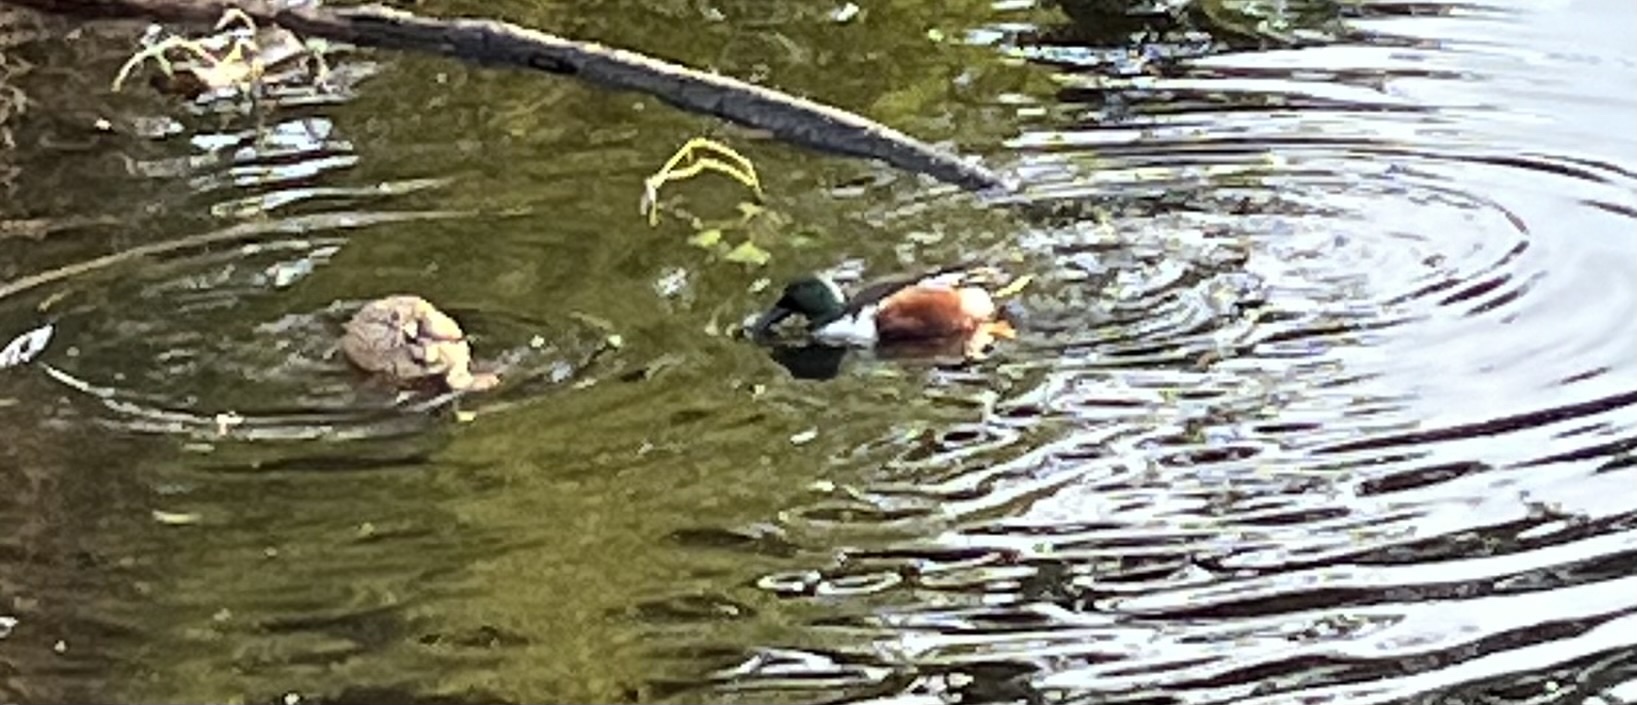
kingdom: Animalia
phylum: Chordata
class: Aves
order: Anseriformes
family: Anatidae
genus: Spatula
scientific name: Spatula clypeata
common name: Northern shoveler
